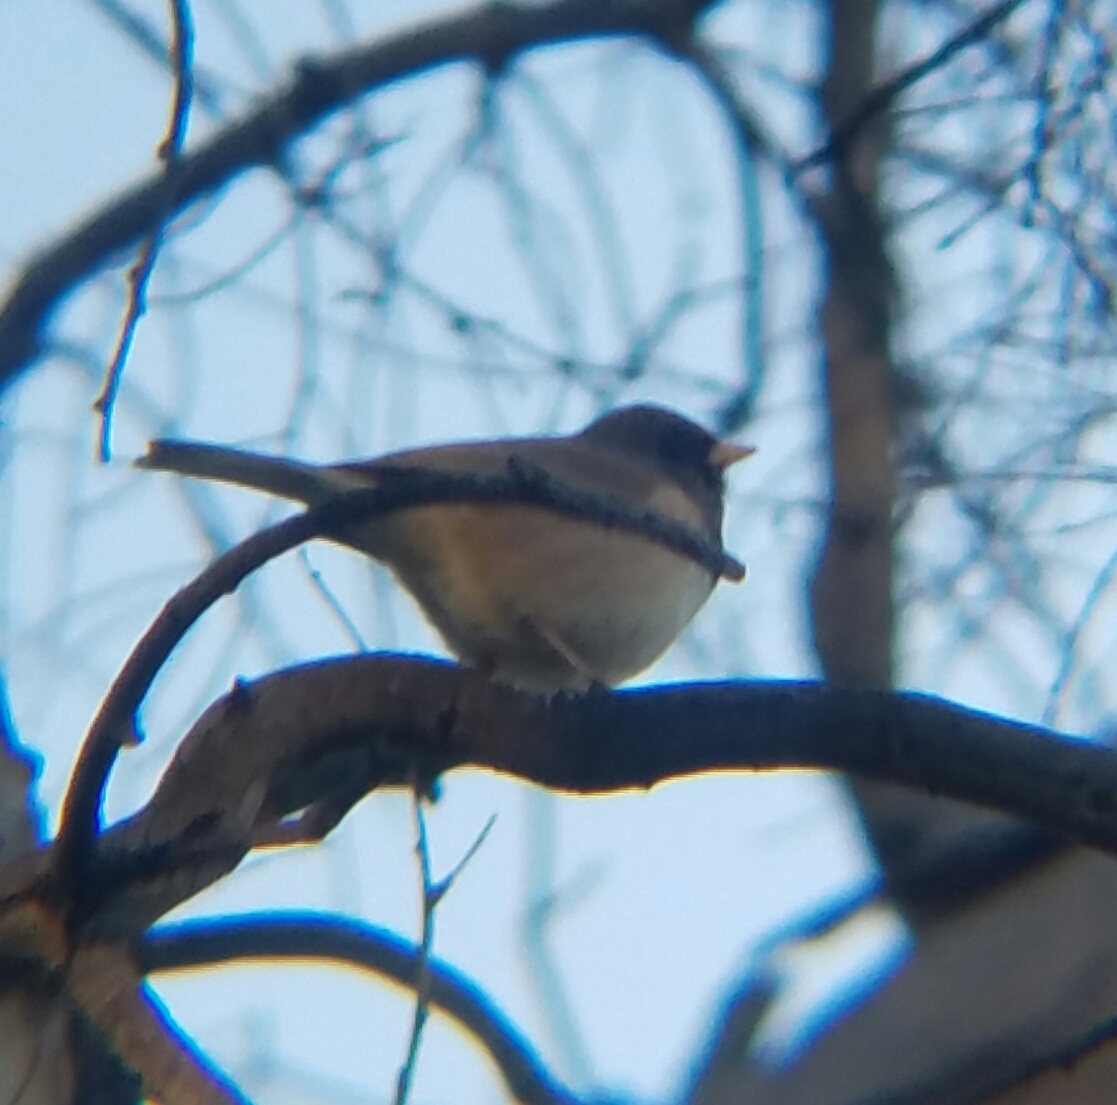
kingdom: Animalia
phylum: Chordata
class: Aves
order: Passeriformes
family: Passerellidae
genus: Junco
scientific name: Junco hyemalis
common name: Dark-eyed junco
